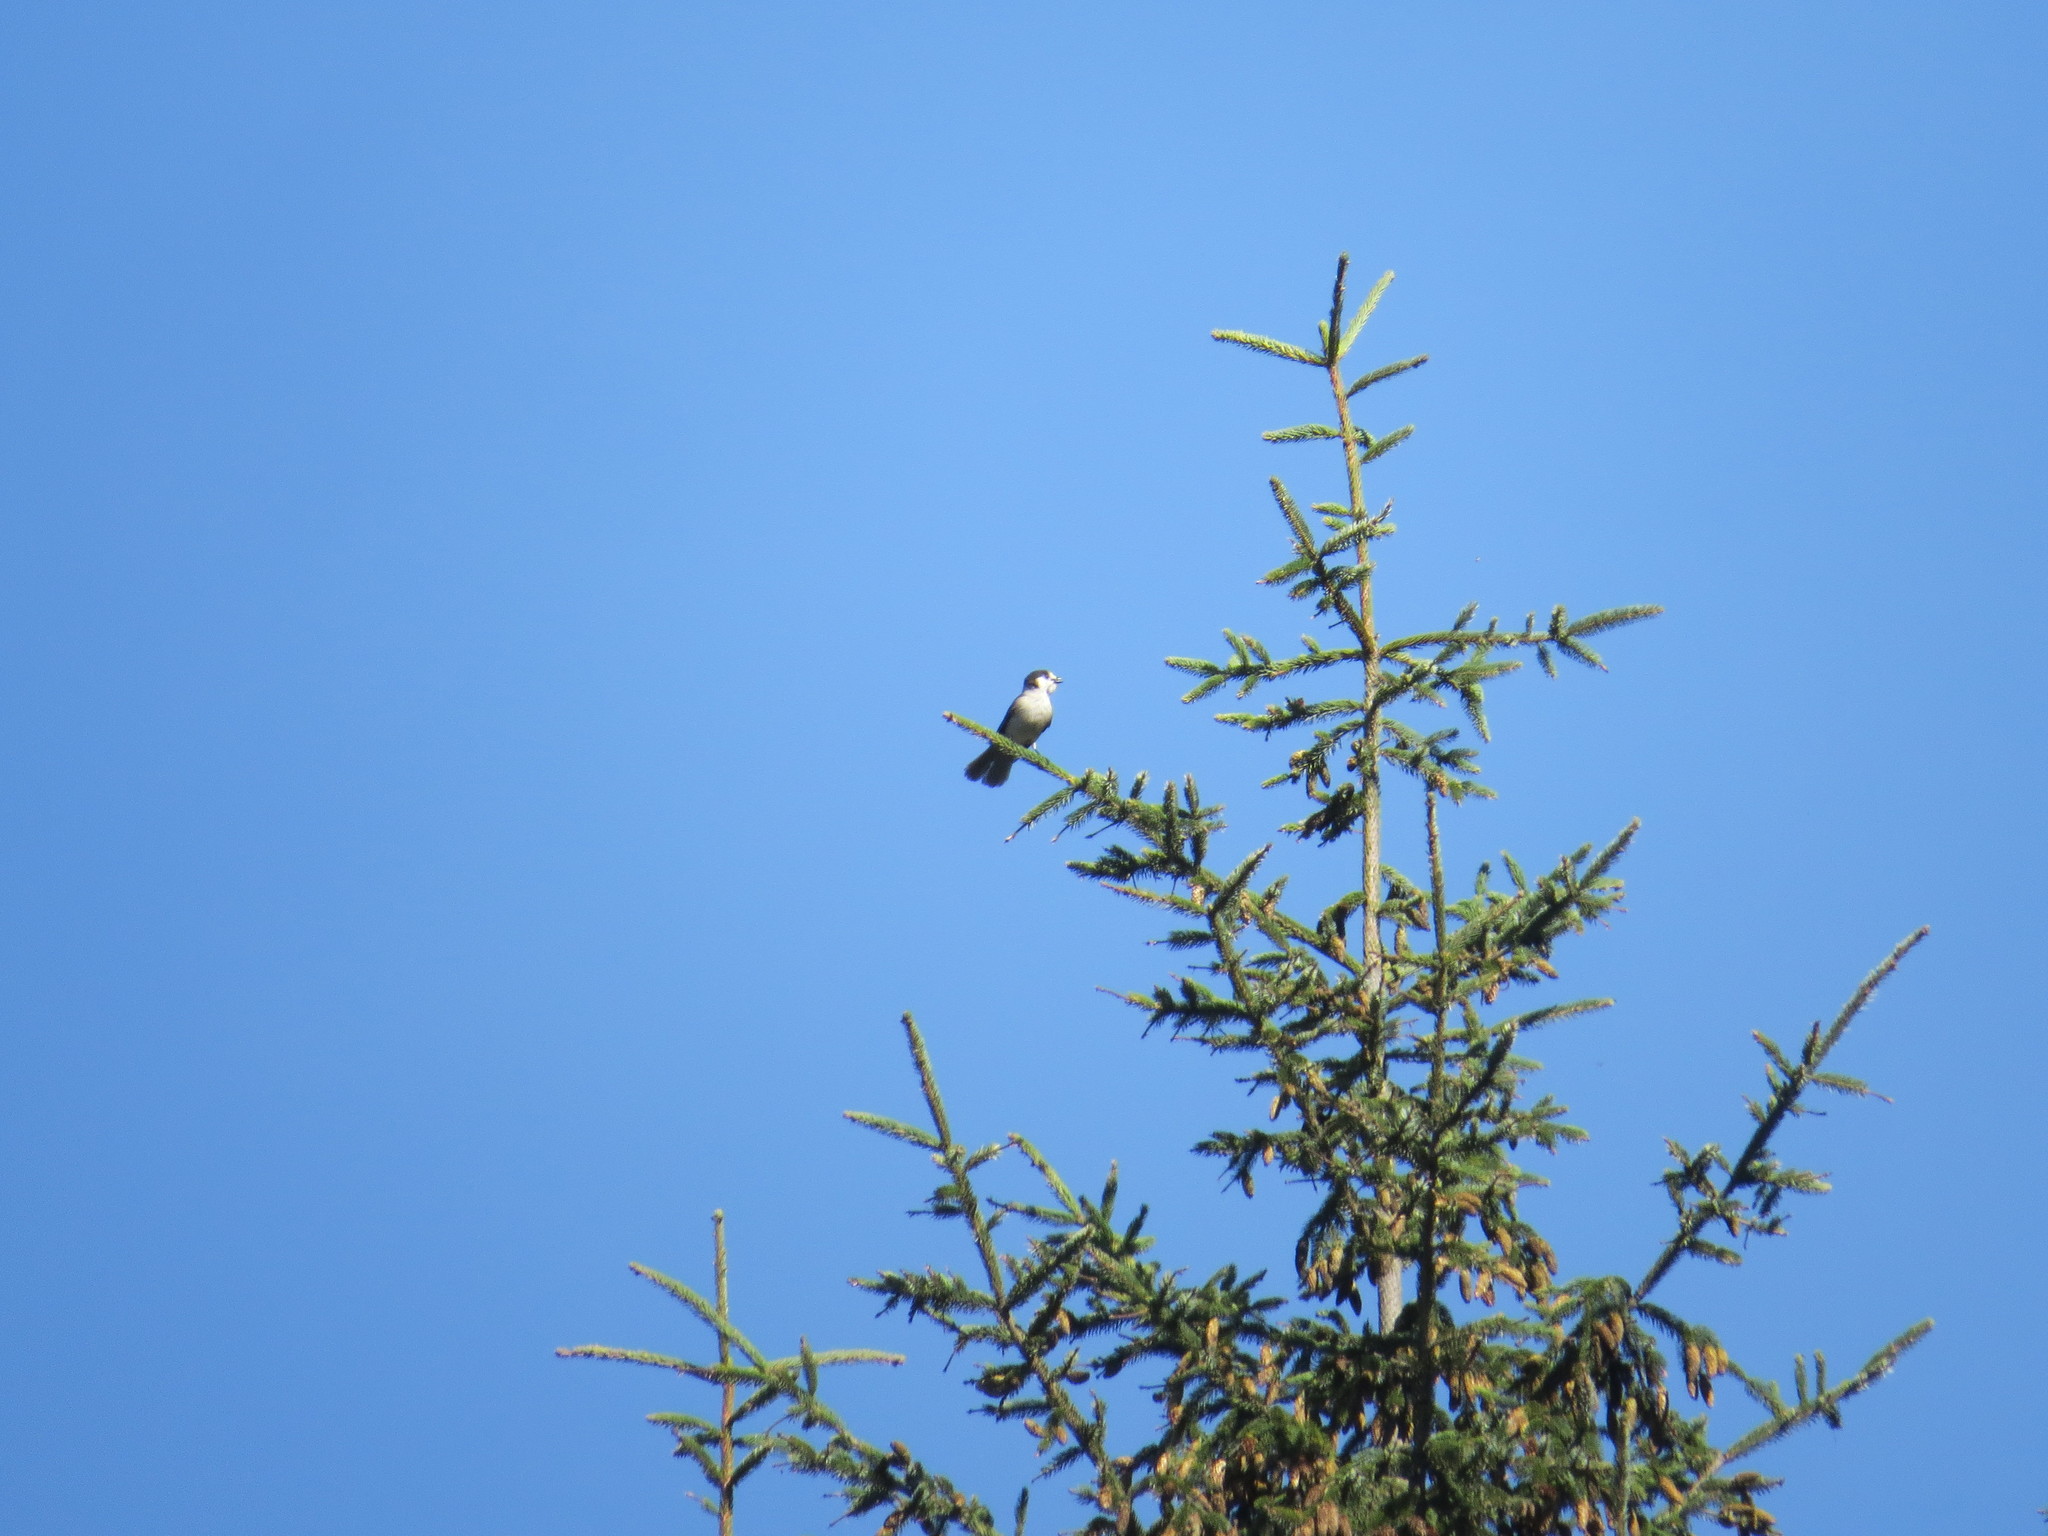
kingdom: Animalia
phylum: Chordata
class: Aves
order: Passeriformes
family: Corvidae
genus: Perisoreus
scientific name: Perisoreus canadensis
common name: Gray jay
